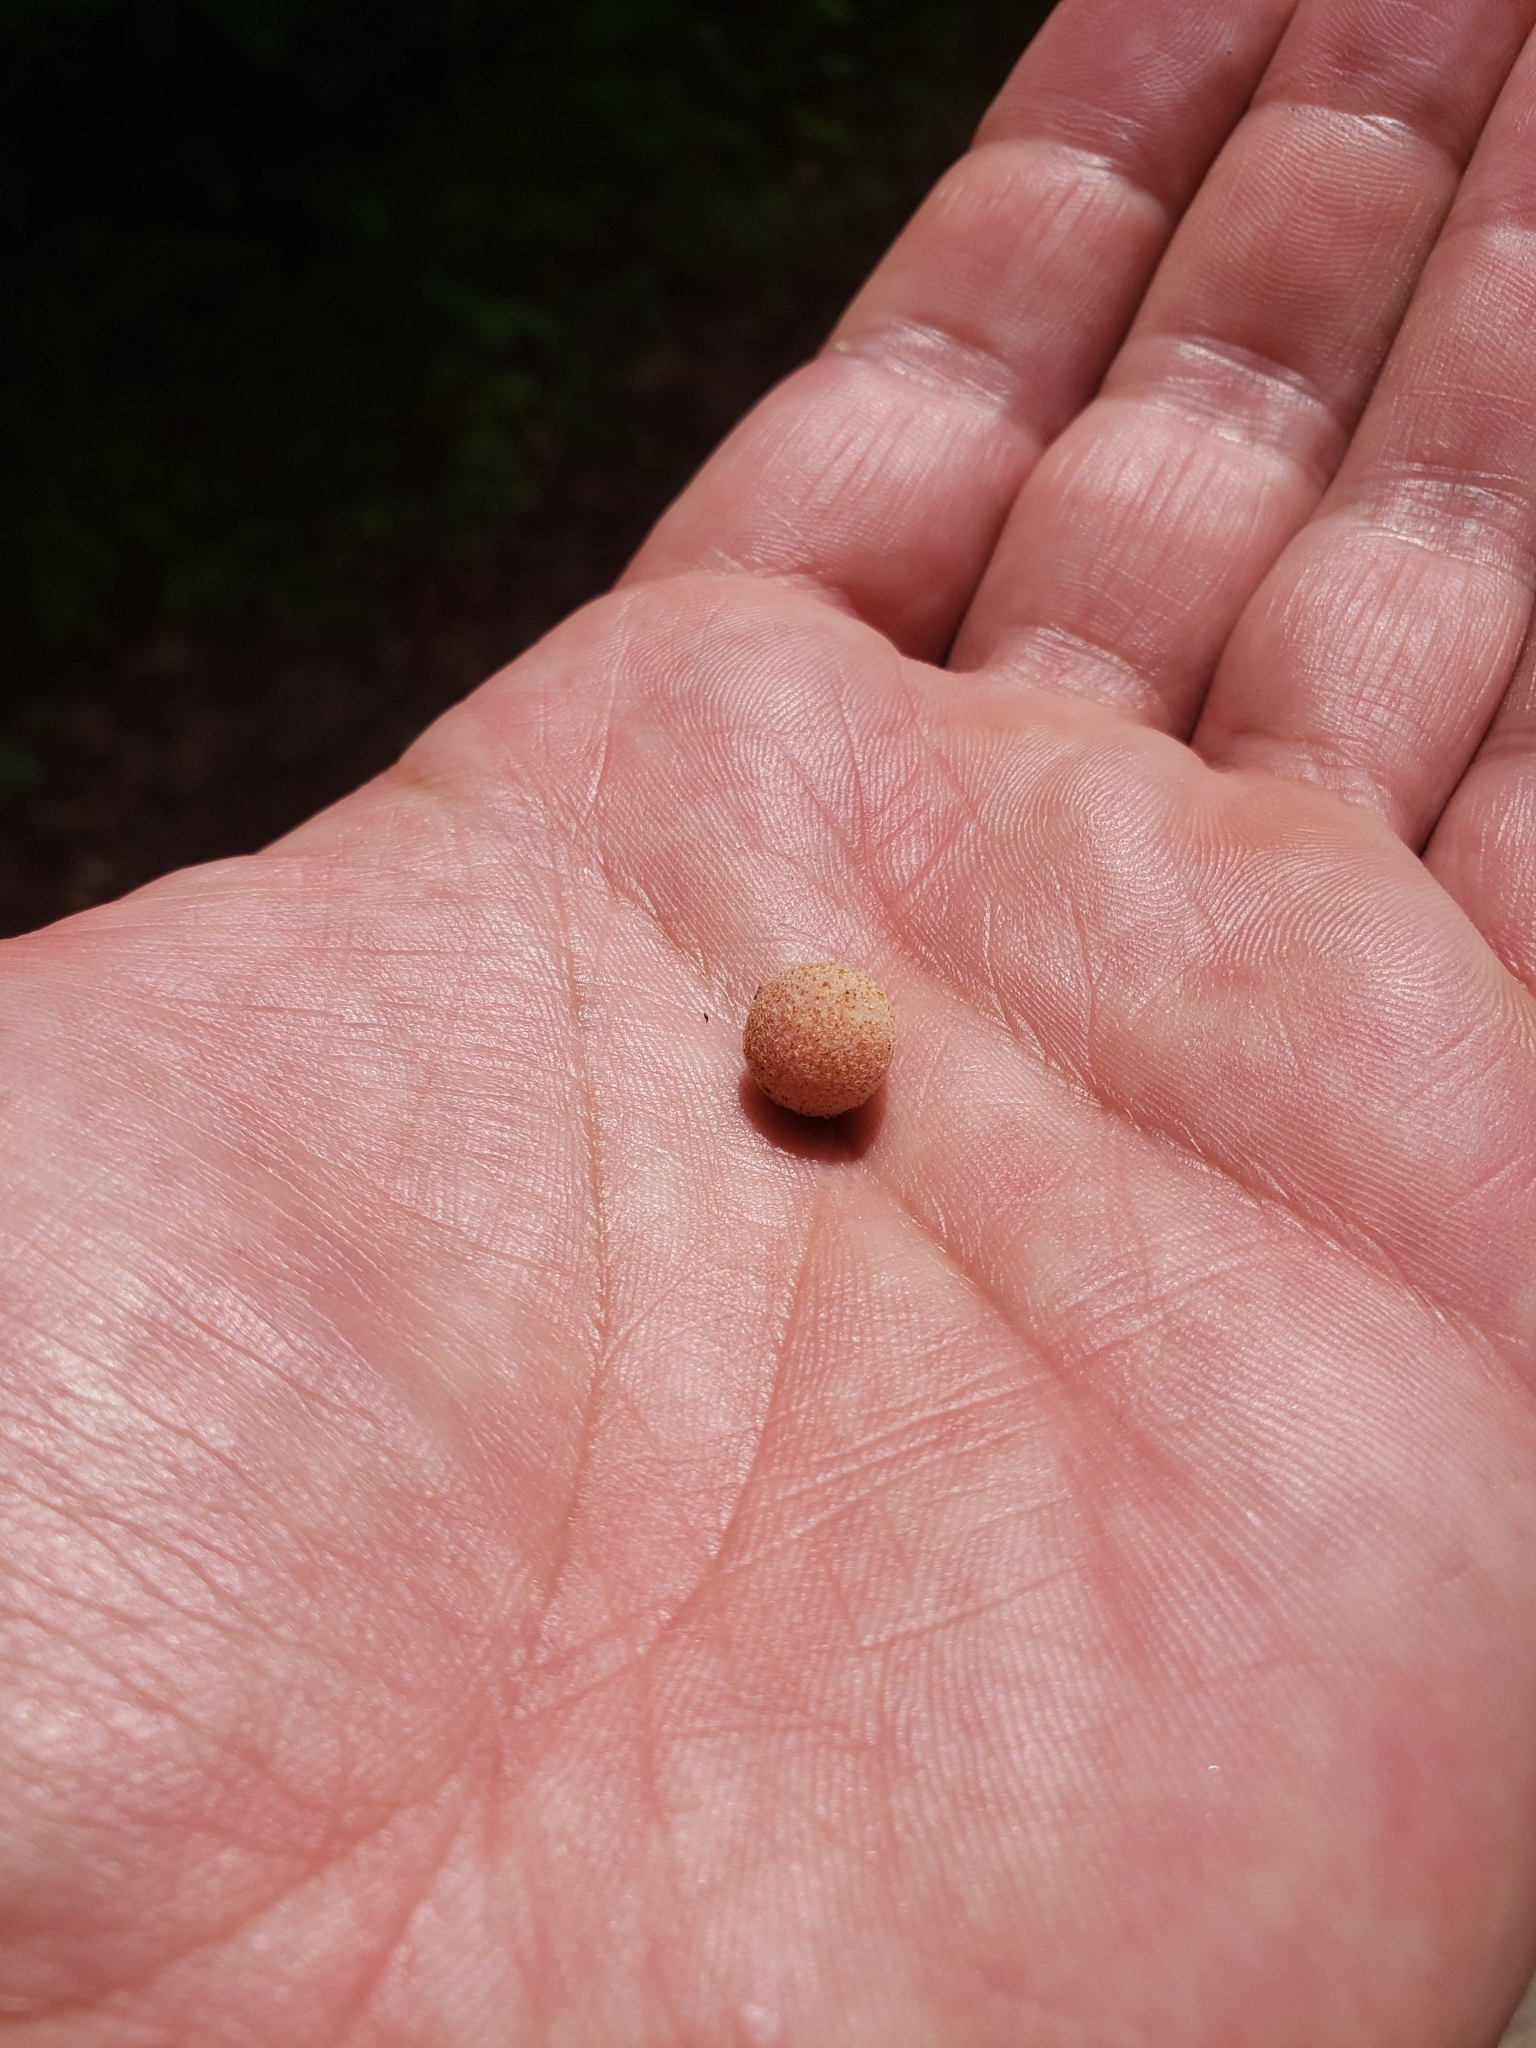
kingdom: Animalia
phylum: Arthropoda
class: Insecta
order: Hymenoptera
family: Cynipidae
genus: Philonix
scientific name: Philonix fulvicollis
